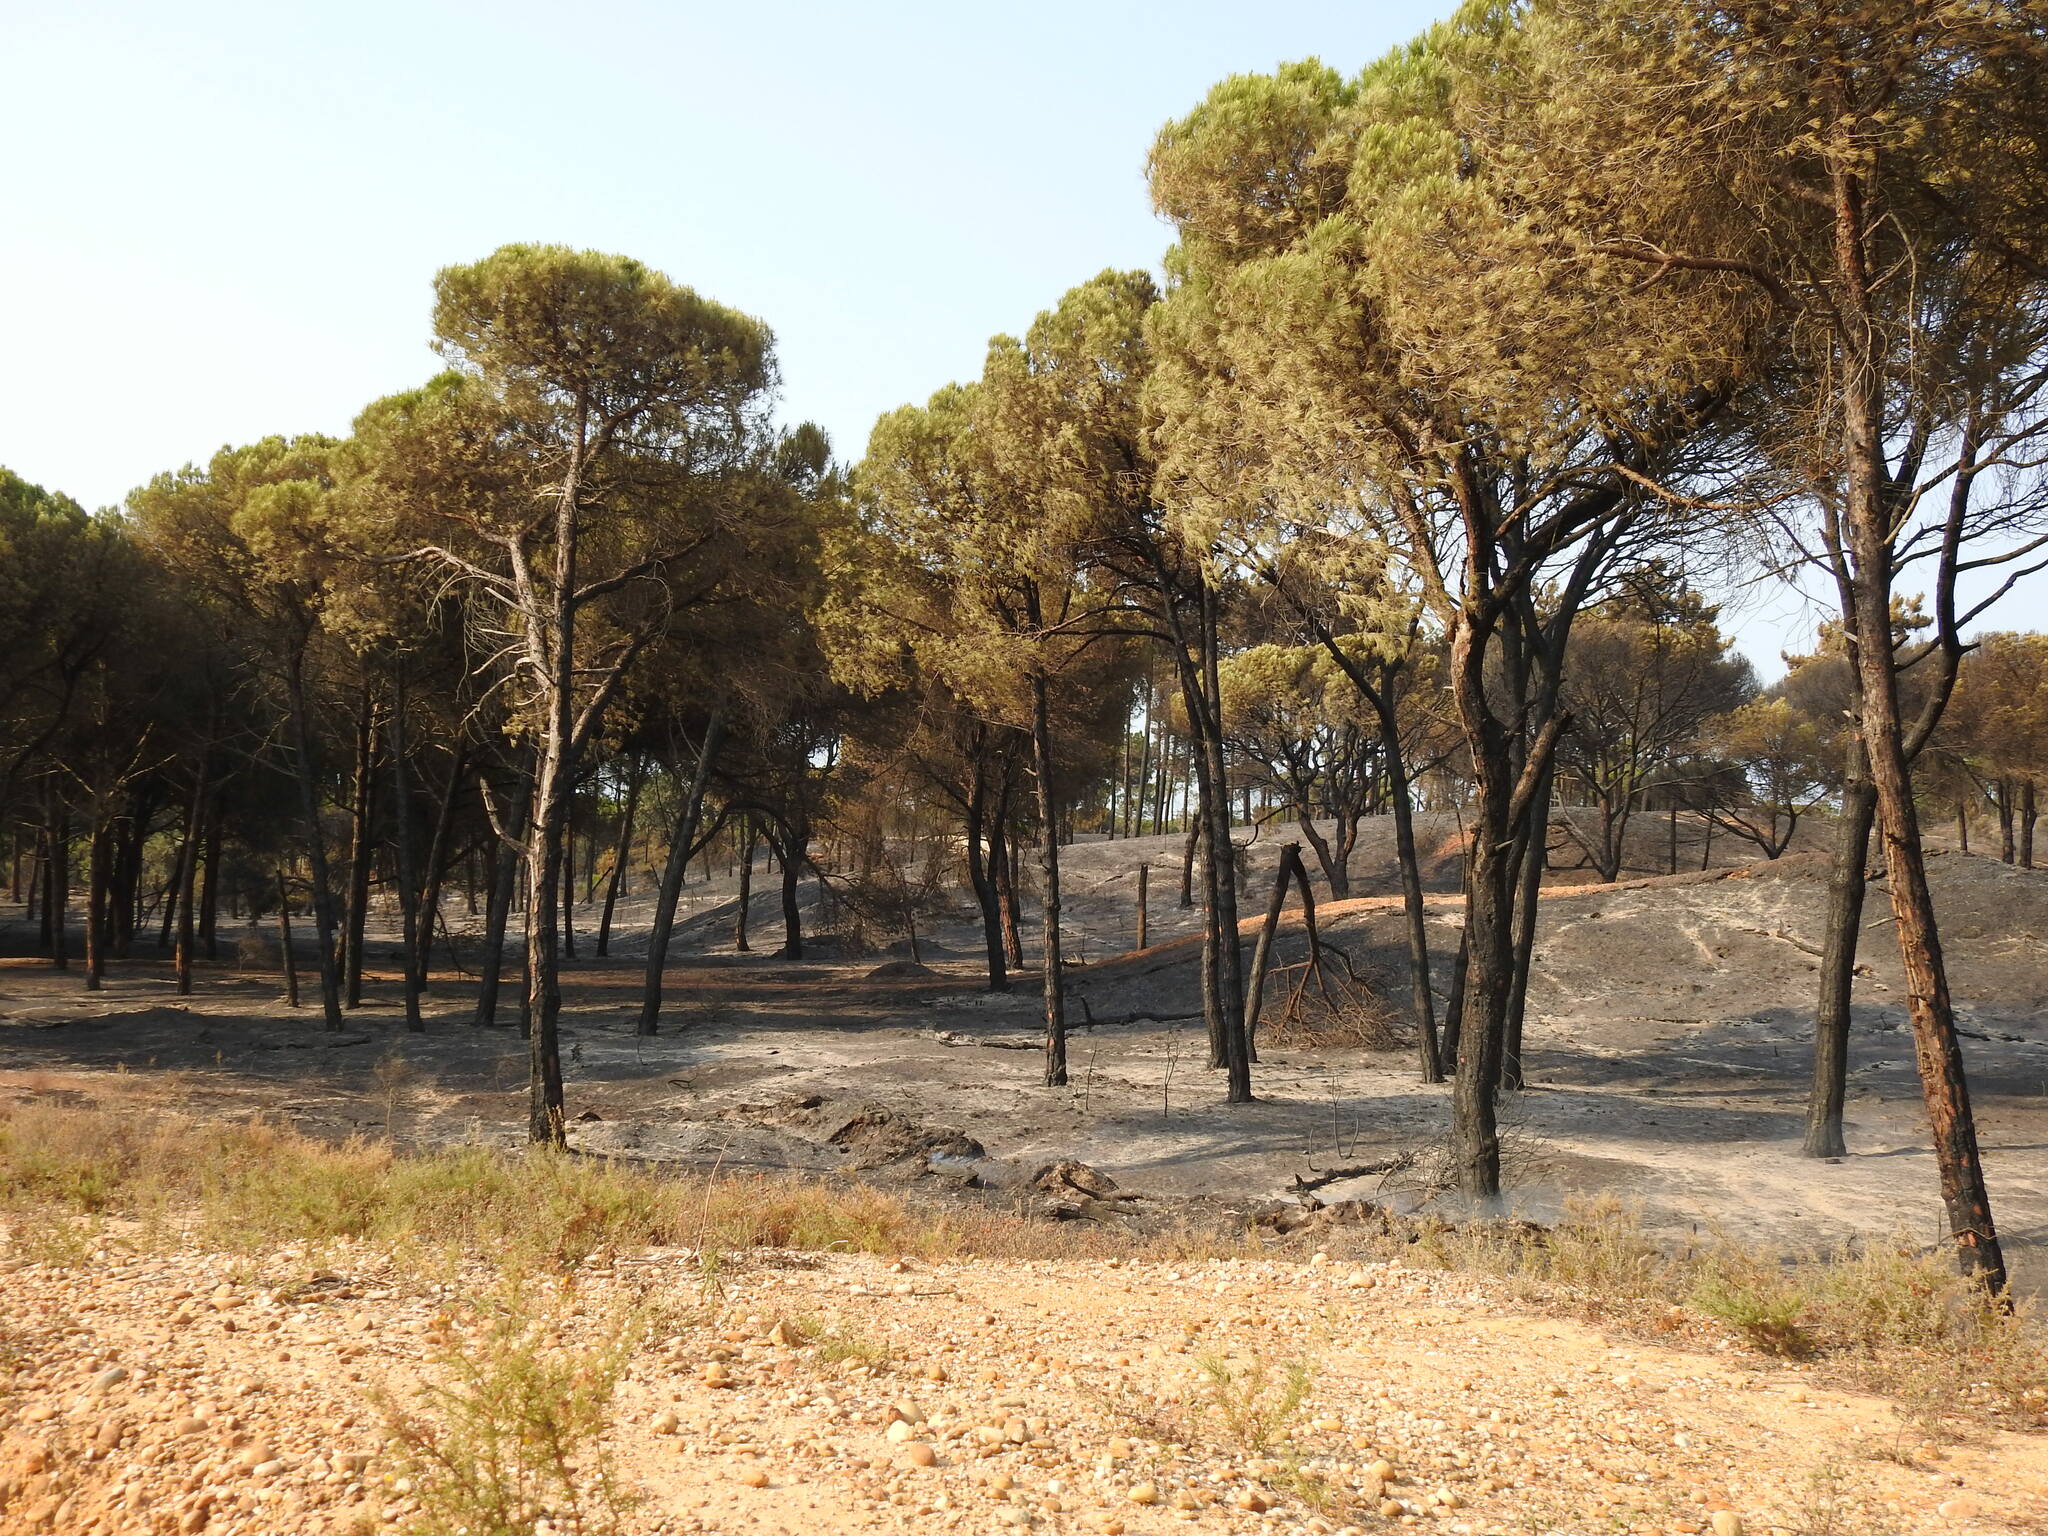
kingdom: Plantae
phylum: Tracheophyta
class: Pinopsida
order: Pinales
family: Pinaceae
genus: Pinus
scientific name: Pinus pinea
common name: Italian stone pine
